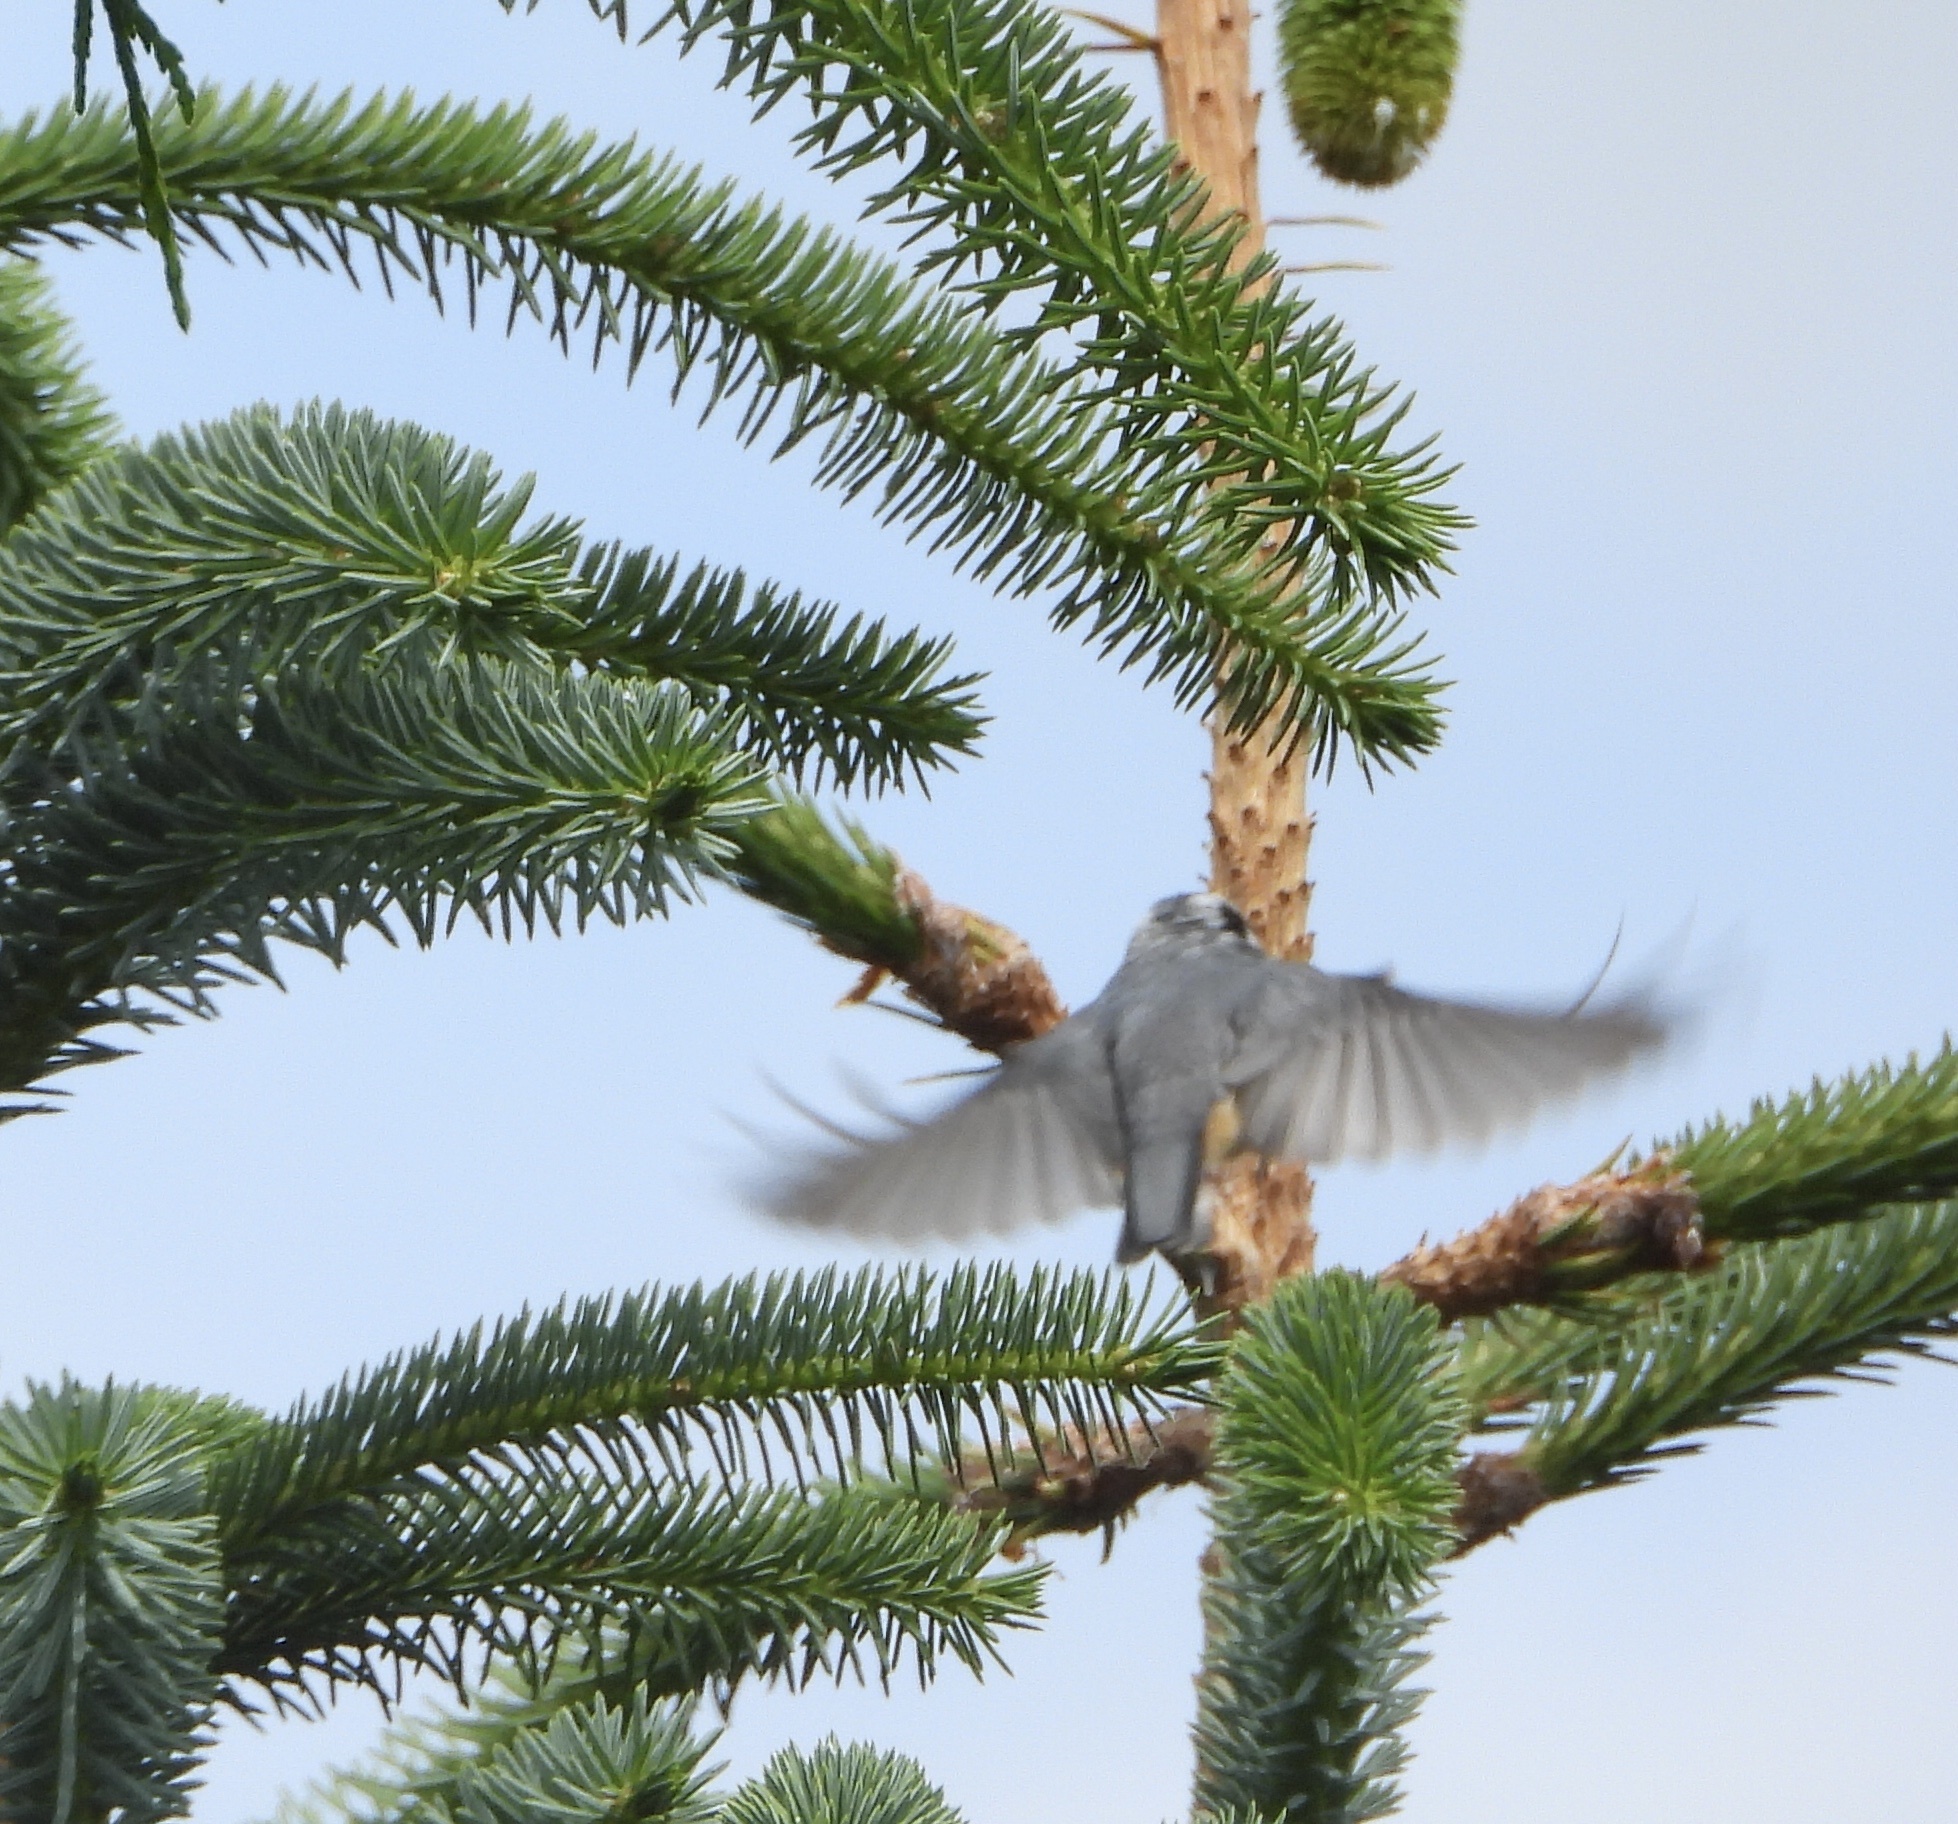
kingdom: Animalia
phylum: Chordata
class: Aves
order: Passeriformes
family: Sittidae
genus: Sitta
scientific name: Sitta canadensis
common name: Red-breasted nuthatch
